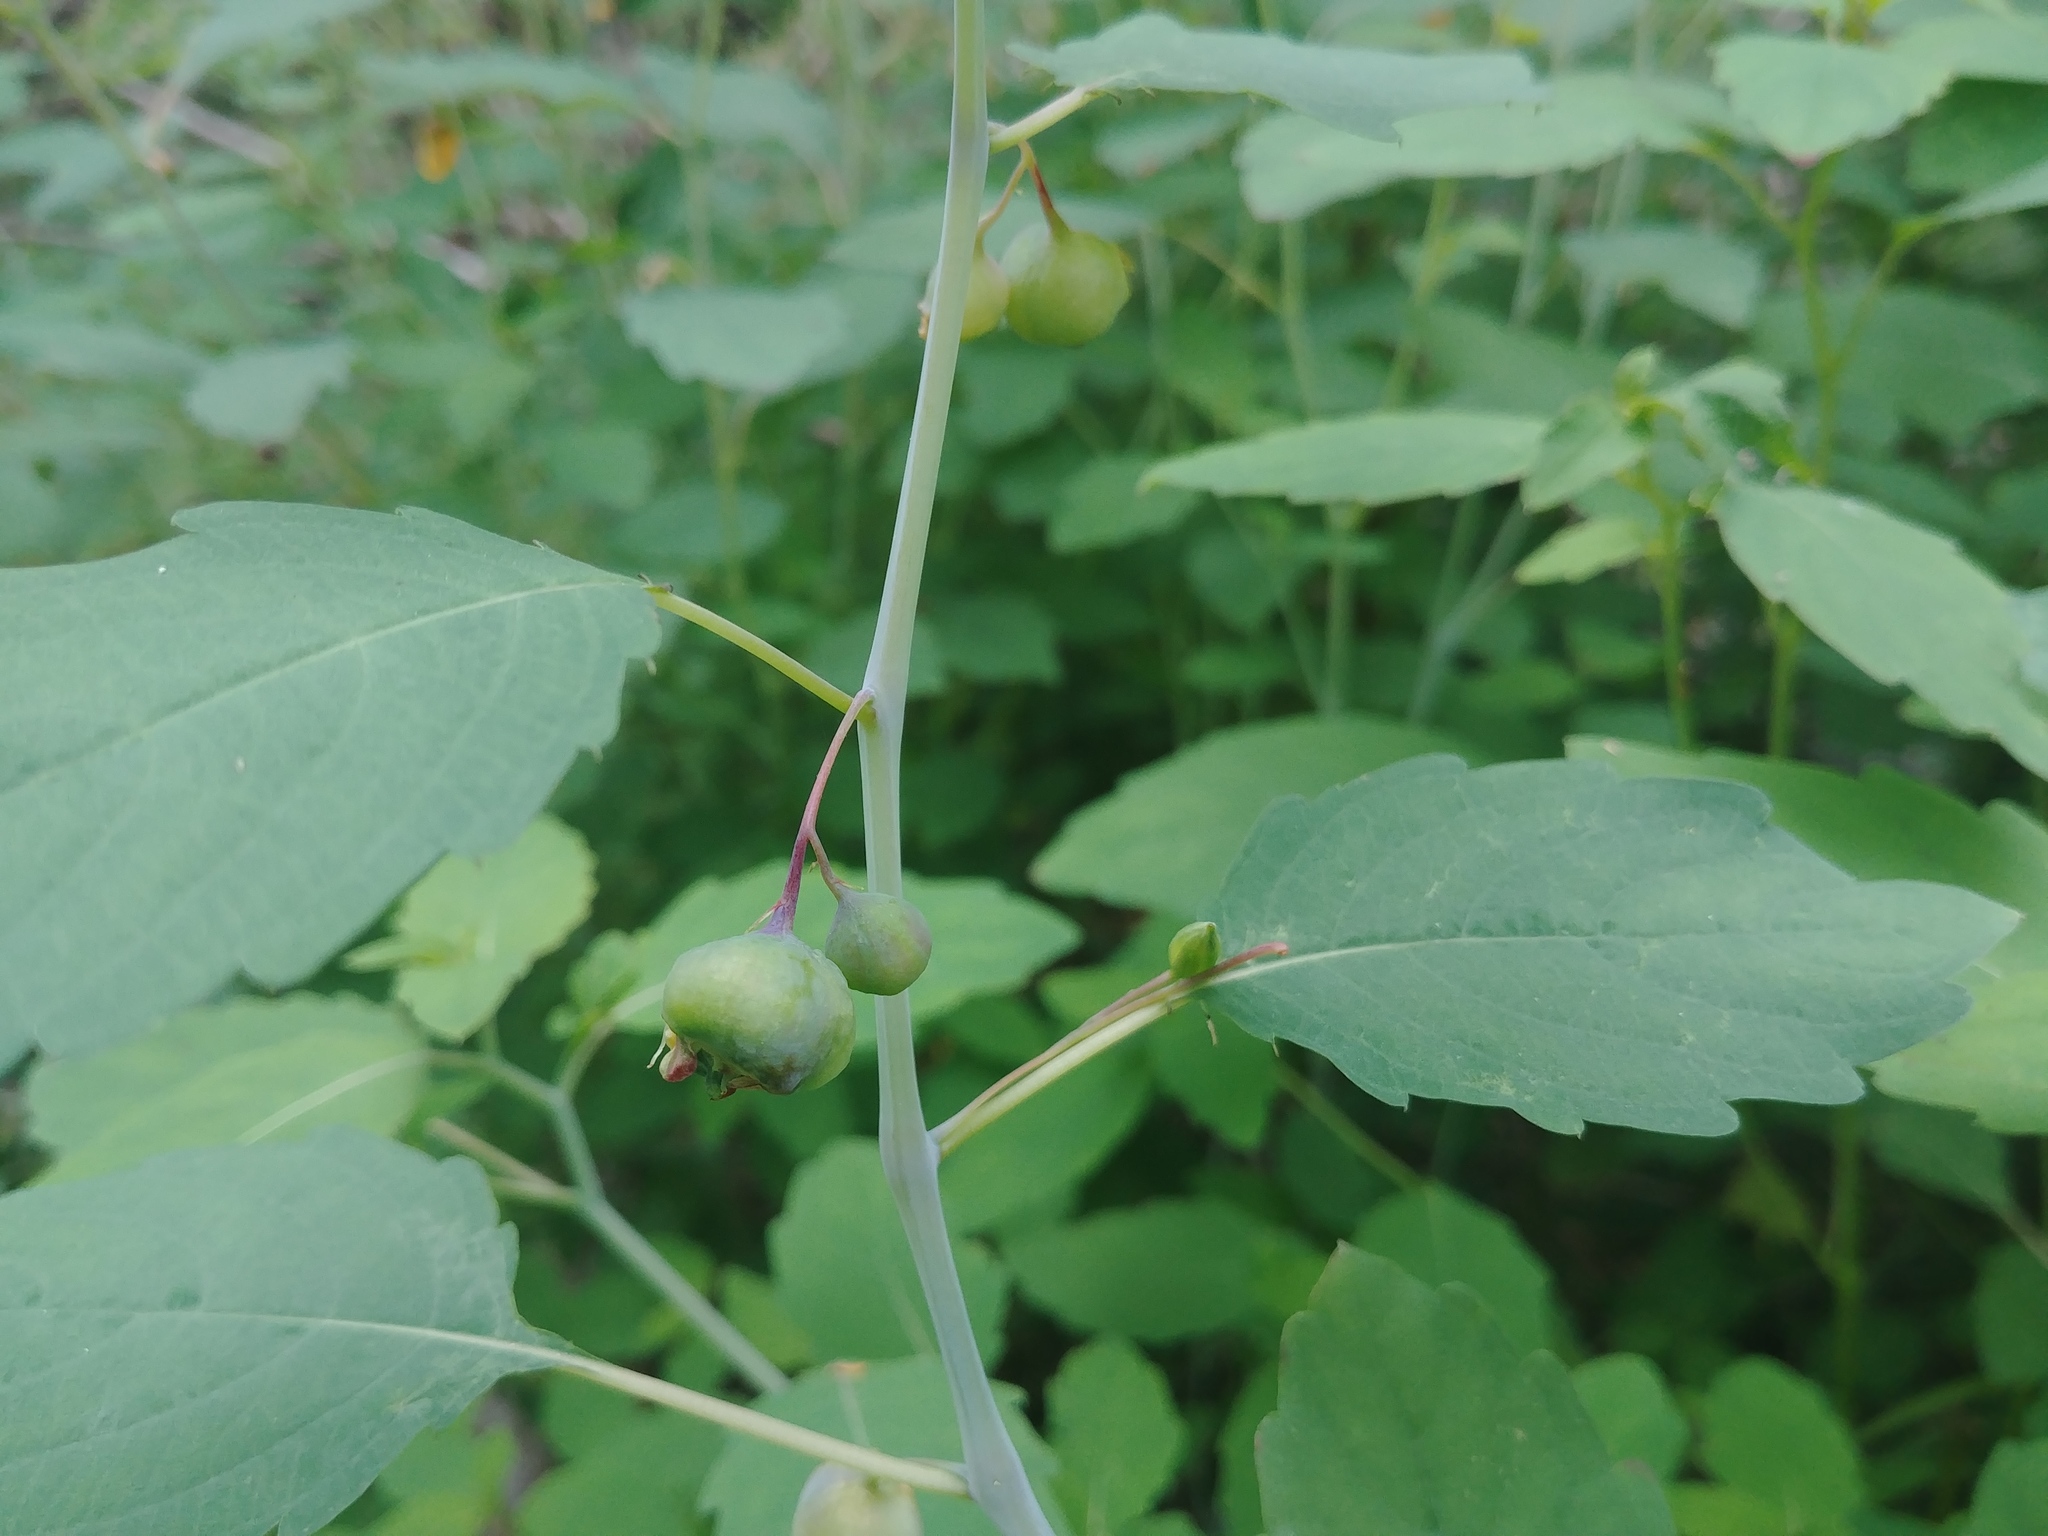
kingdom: Animalia
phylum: Arthropoda
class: Insecta
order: Diptera
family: Cecidomyiidae
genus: Schizomyia
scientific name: Schizomyia impatientis
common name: Jewelweed gall midge
